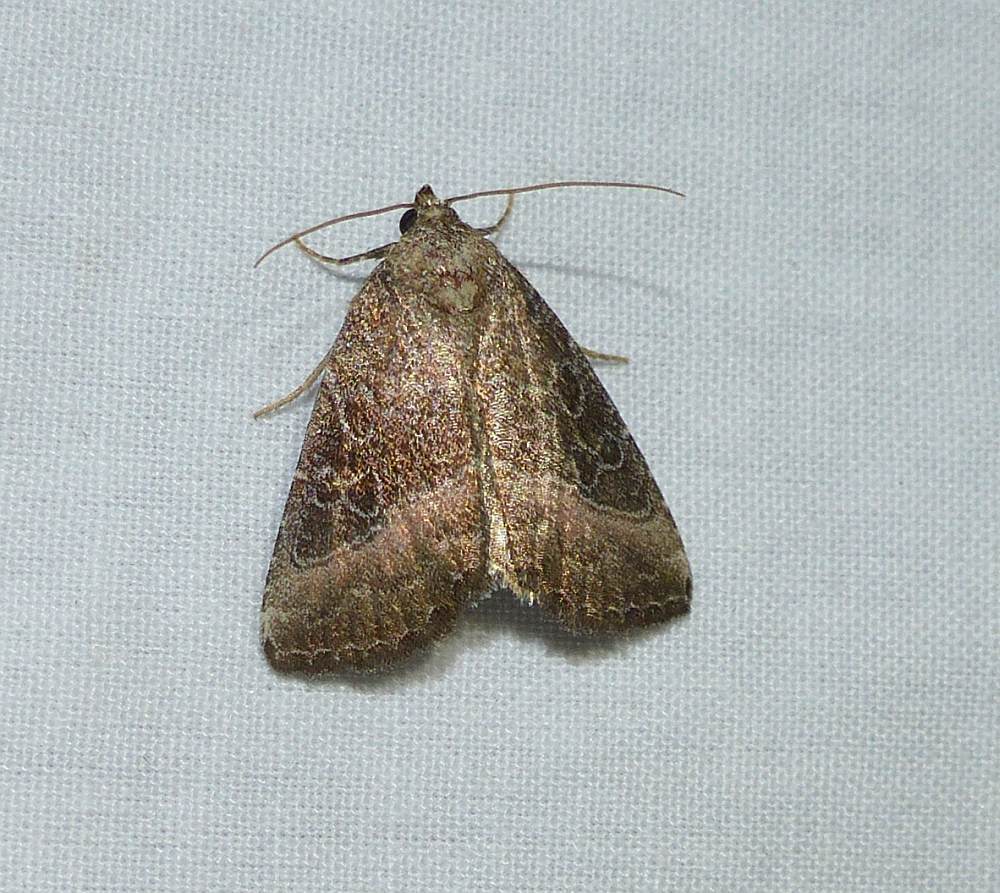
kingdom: Animalia
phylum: Arthropoda
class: Insecta
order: Lepidoptera
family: Noctuidae
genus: Ogdoconta
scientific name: Ogdoconta cinereola
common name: Common pinkband
